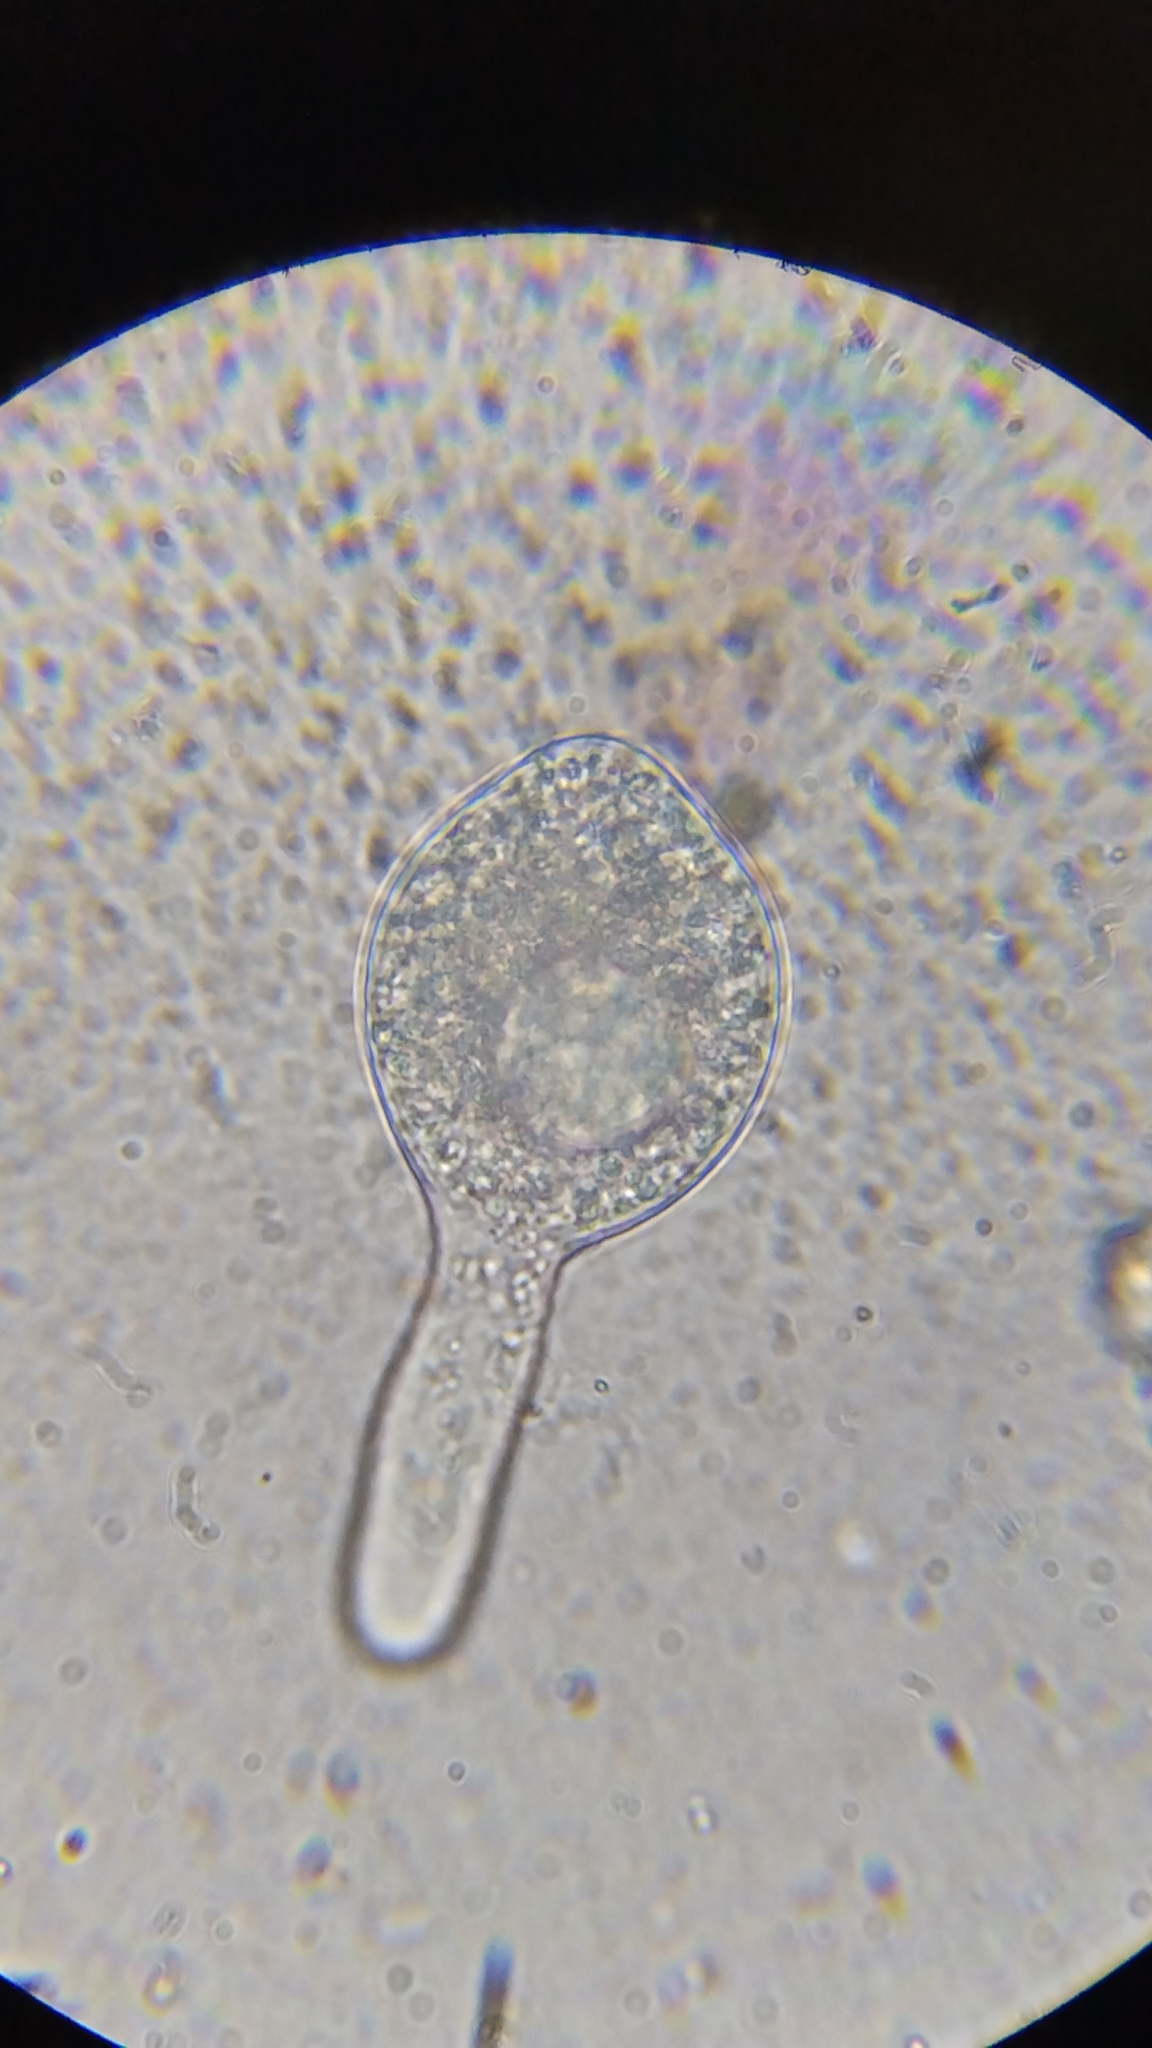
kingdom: Fungi
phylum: Entomophthoromycota
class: Entomophthoromycetes
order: Entomophthorales
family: Entomophthoraceae
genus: Arthrophaga
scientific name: Arthrophaga myriapodina
